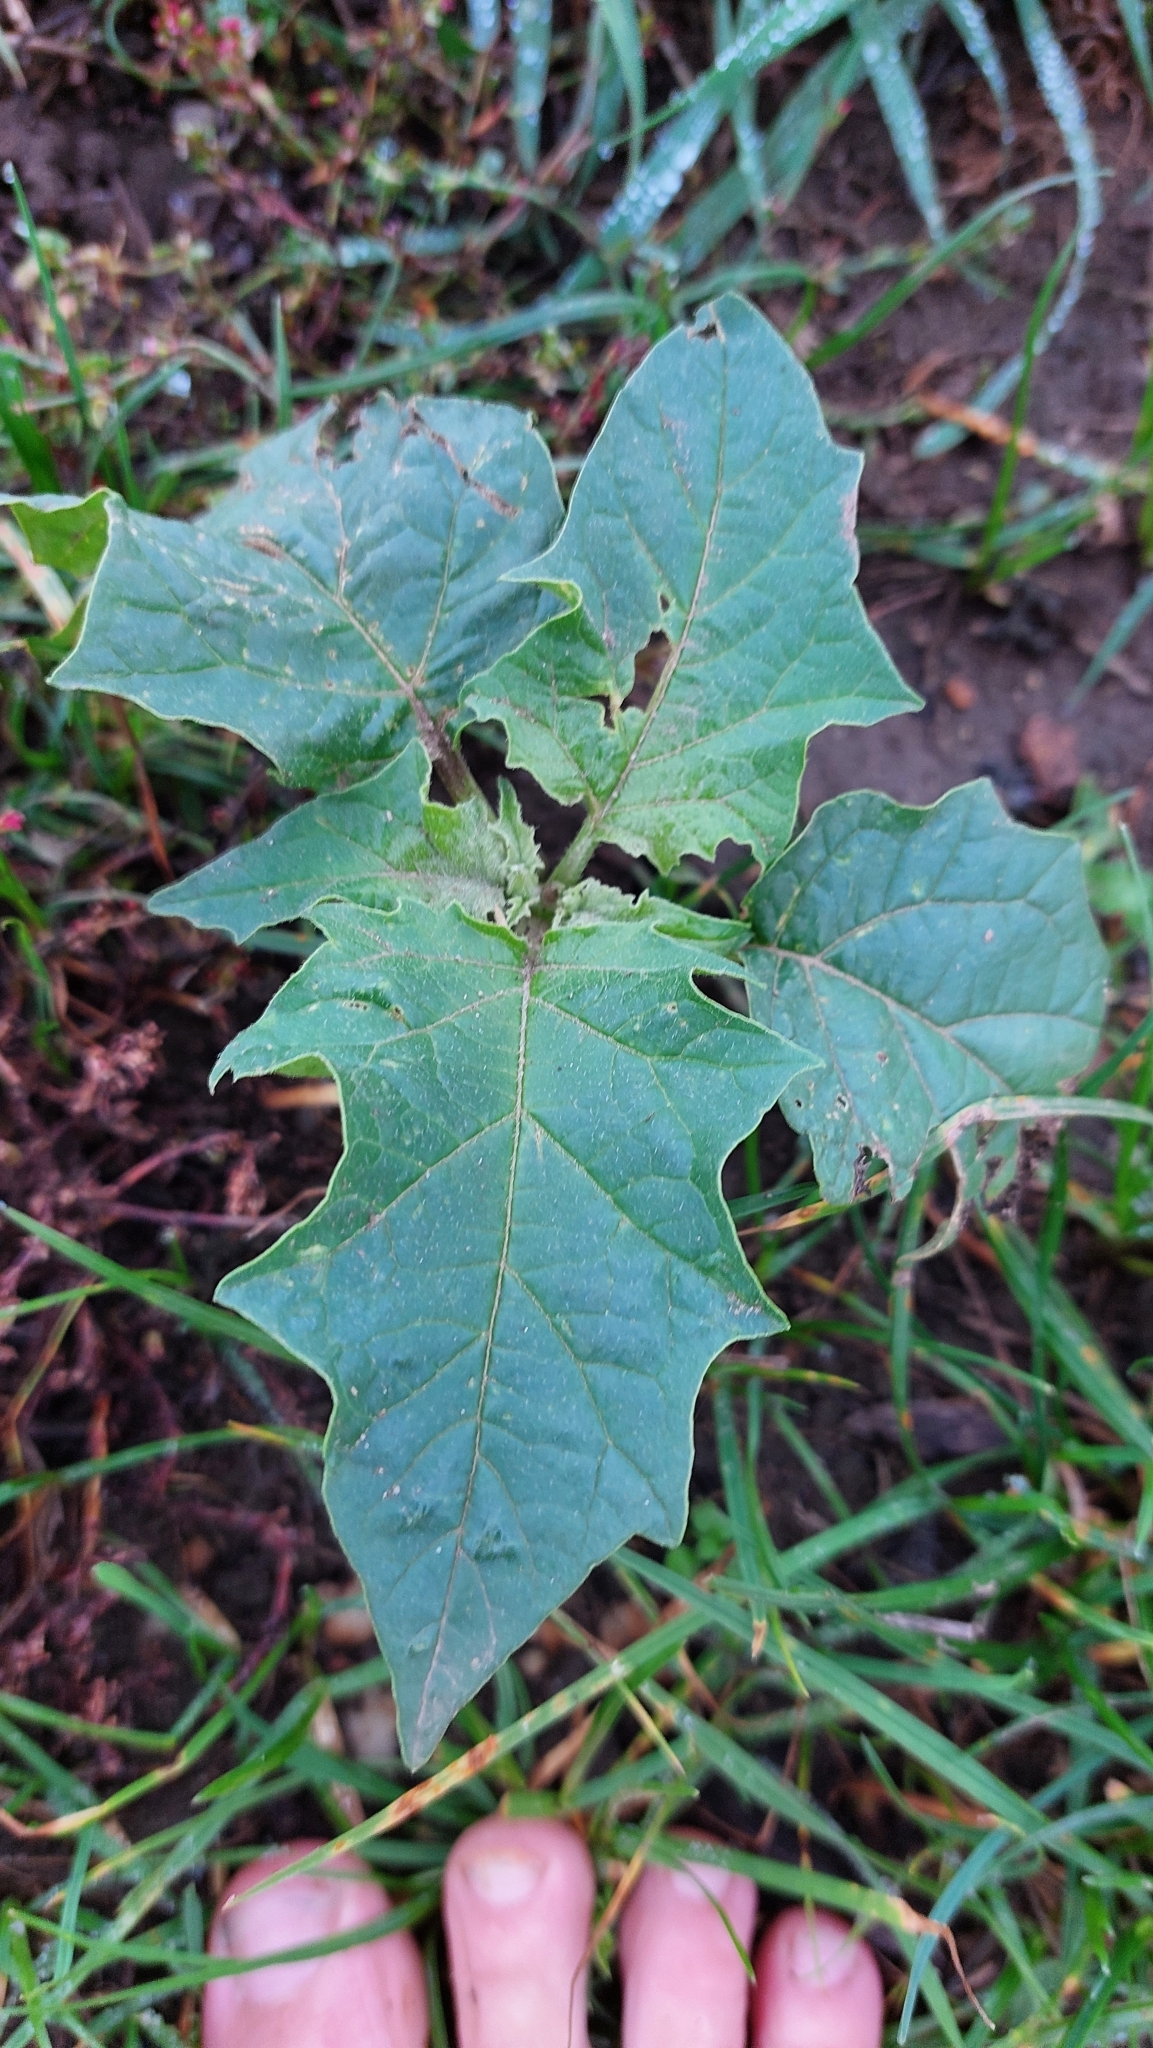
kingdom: Plantae
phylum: Tracheophyta
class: Magnoliopsida
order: Solanales
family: Solanaceae
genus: Datura
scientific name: Datura stramonium
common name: Thorn-apple
